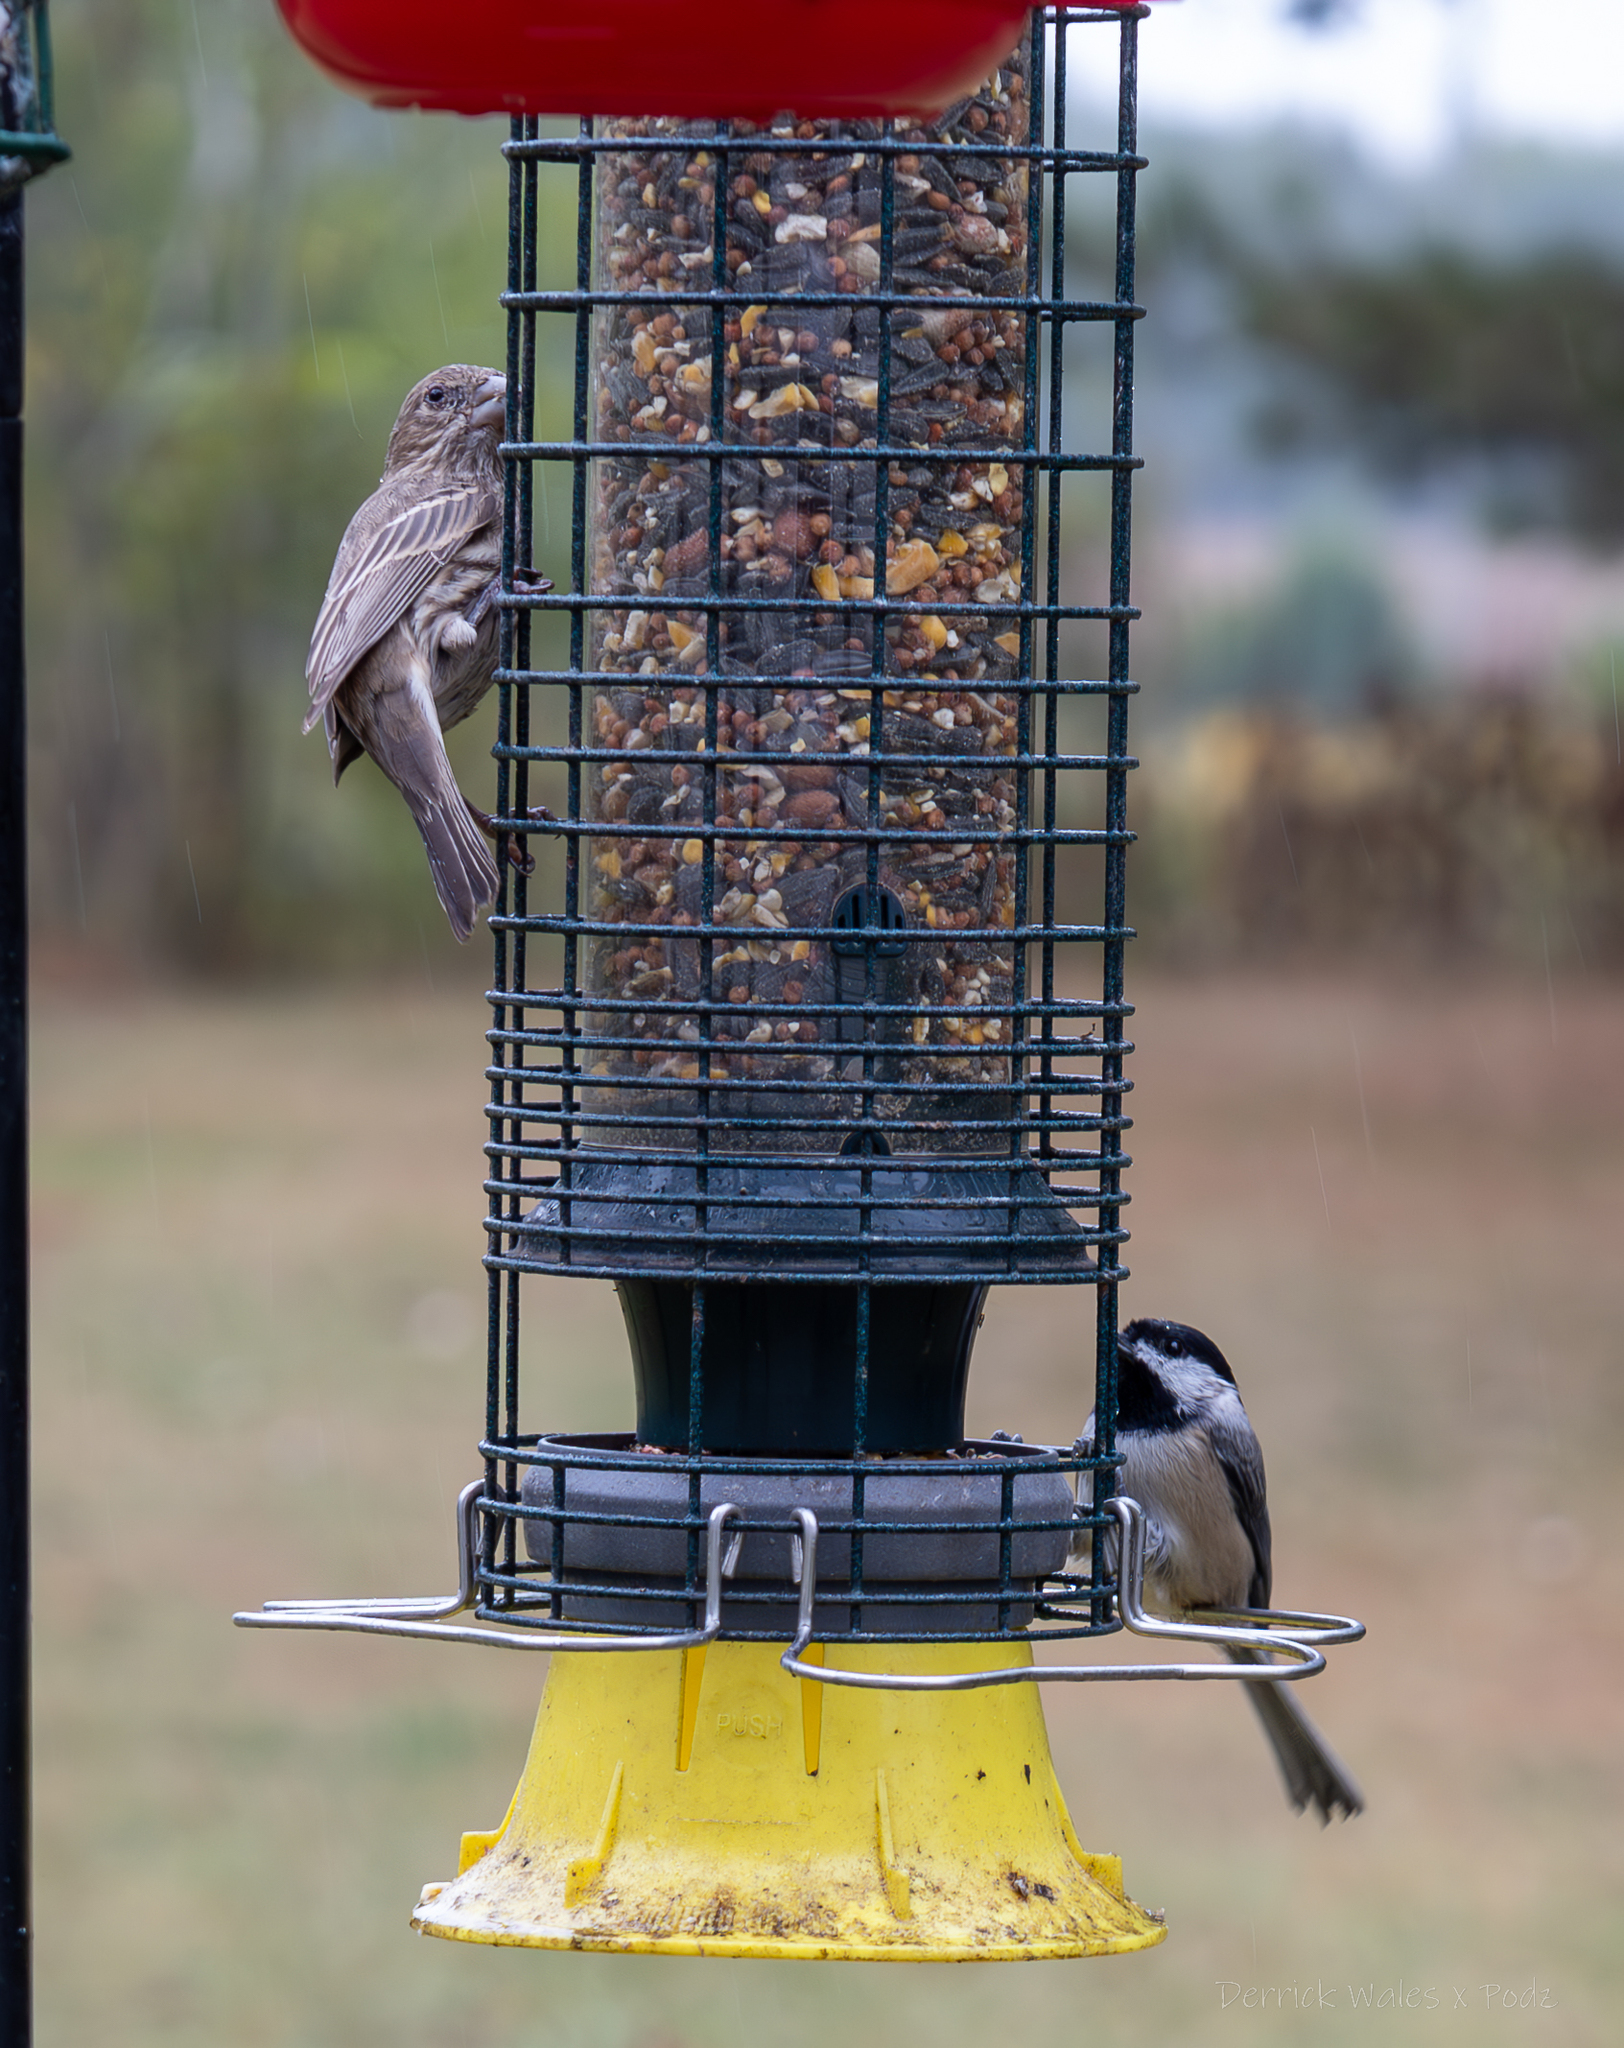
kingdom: Animalia
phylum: Chordata
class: Aves
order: Passeriformes
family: Fringillidae
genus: Haemorhous
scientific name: Haemorhous mexicanus
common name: House finch
